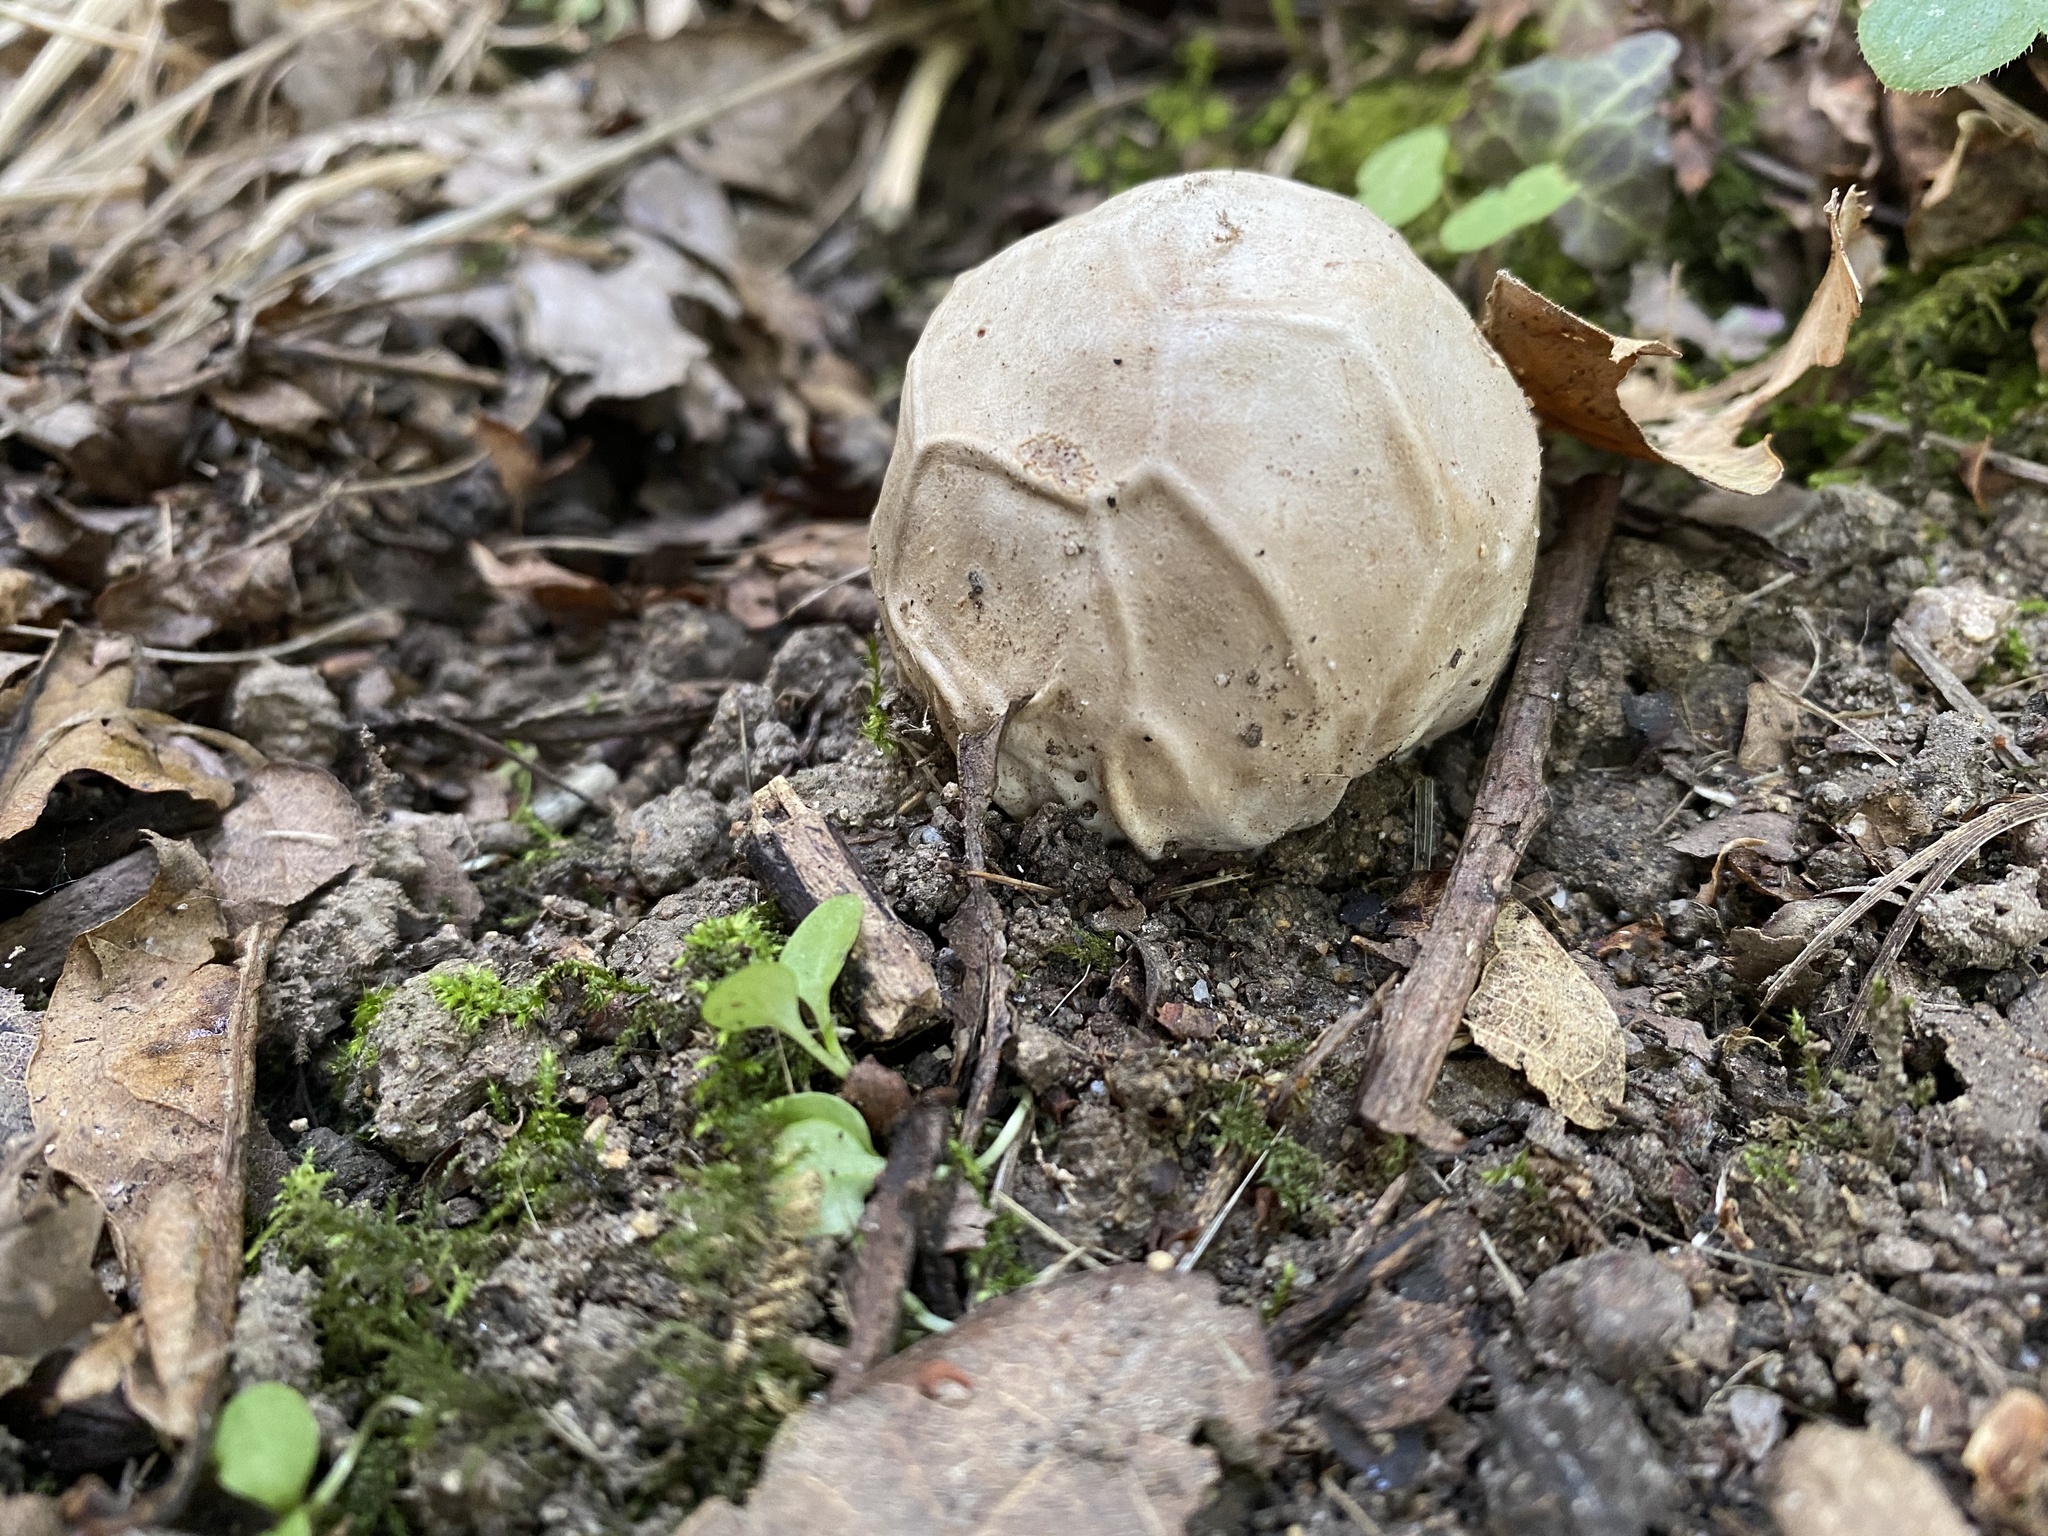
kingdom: Fungi
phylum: Basidiomycota
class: Agaricomycetes
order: Phallales
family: Phallaceae
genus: Clathrus
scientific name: Clathrus ruber
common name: Red cage
